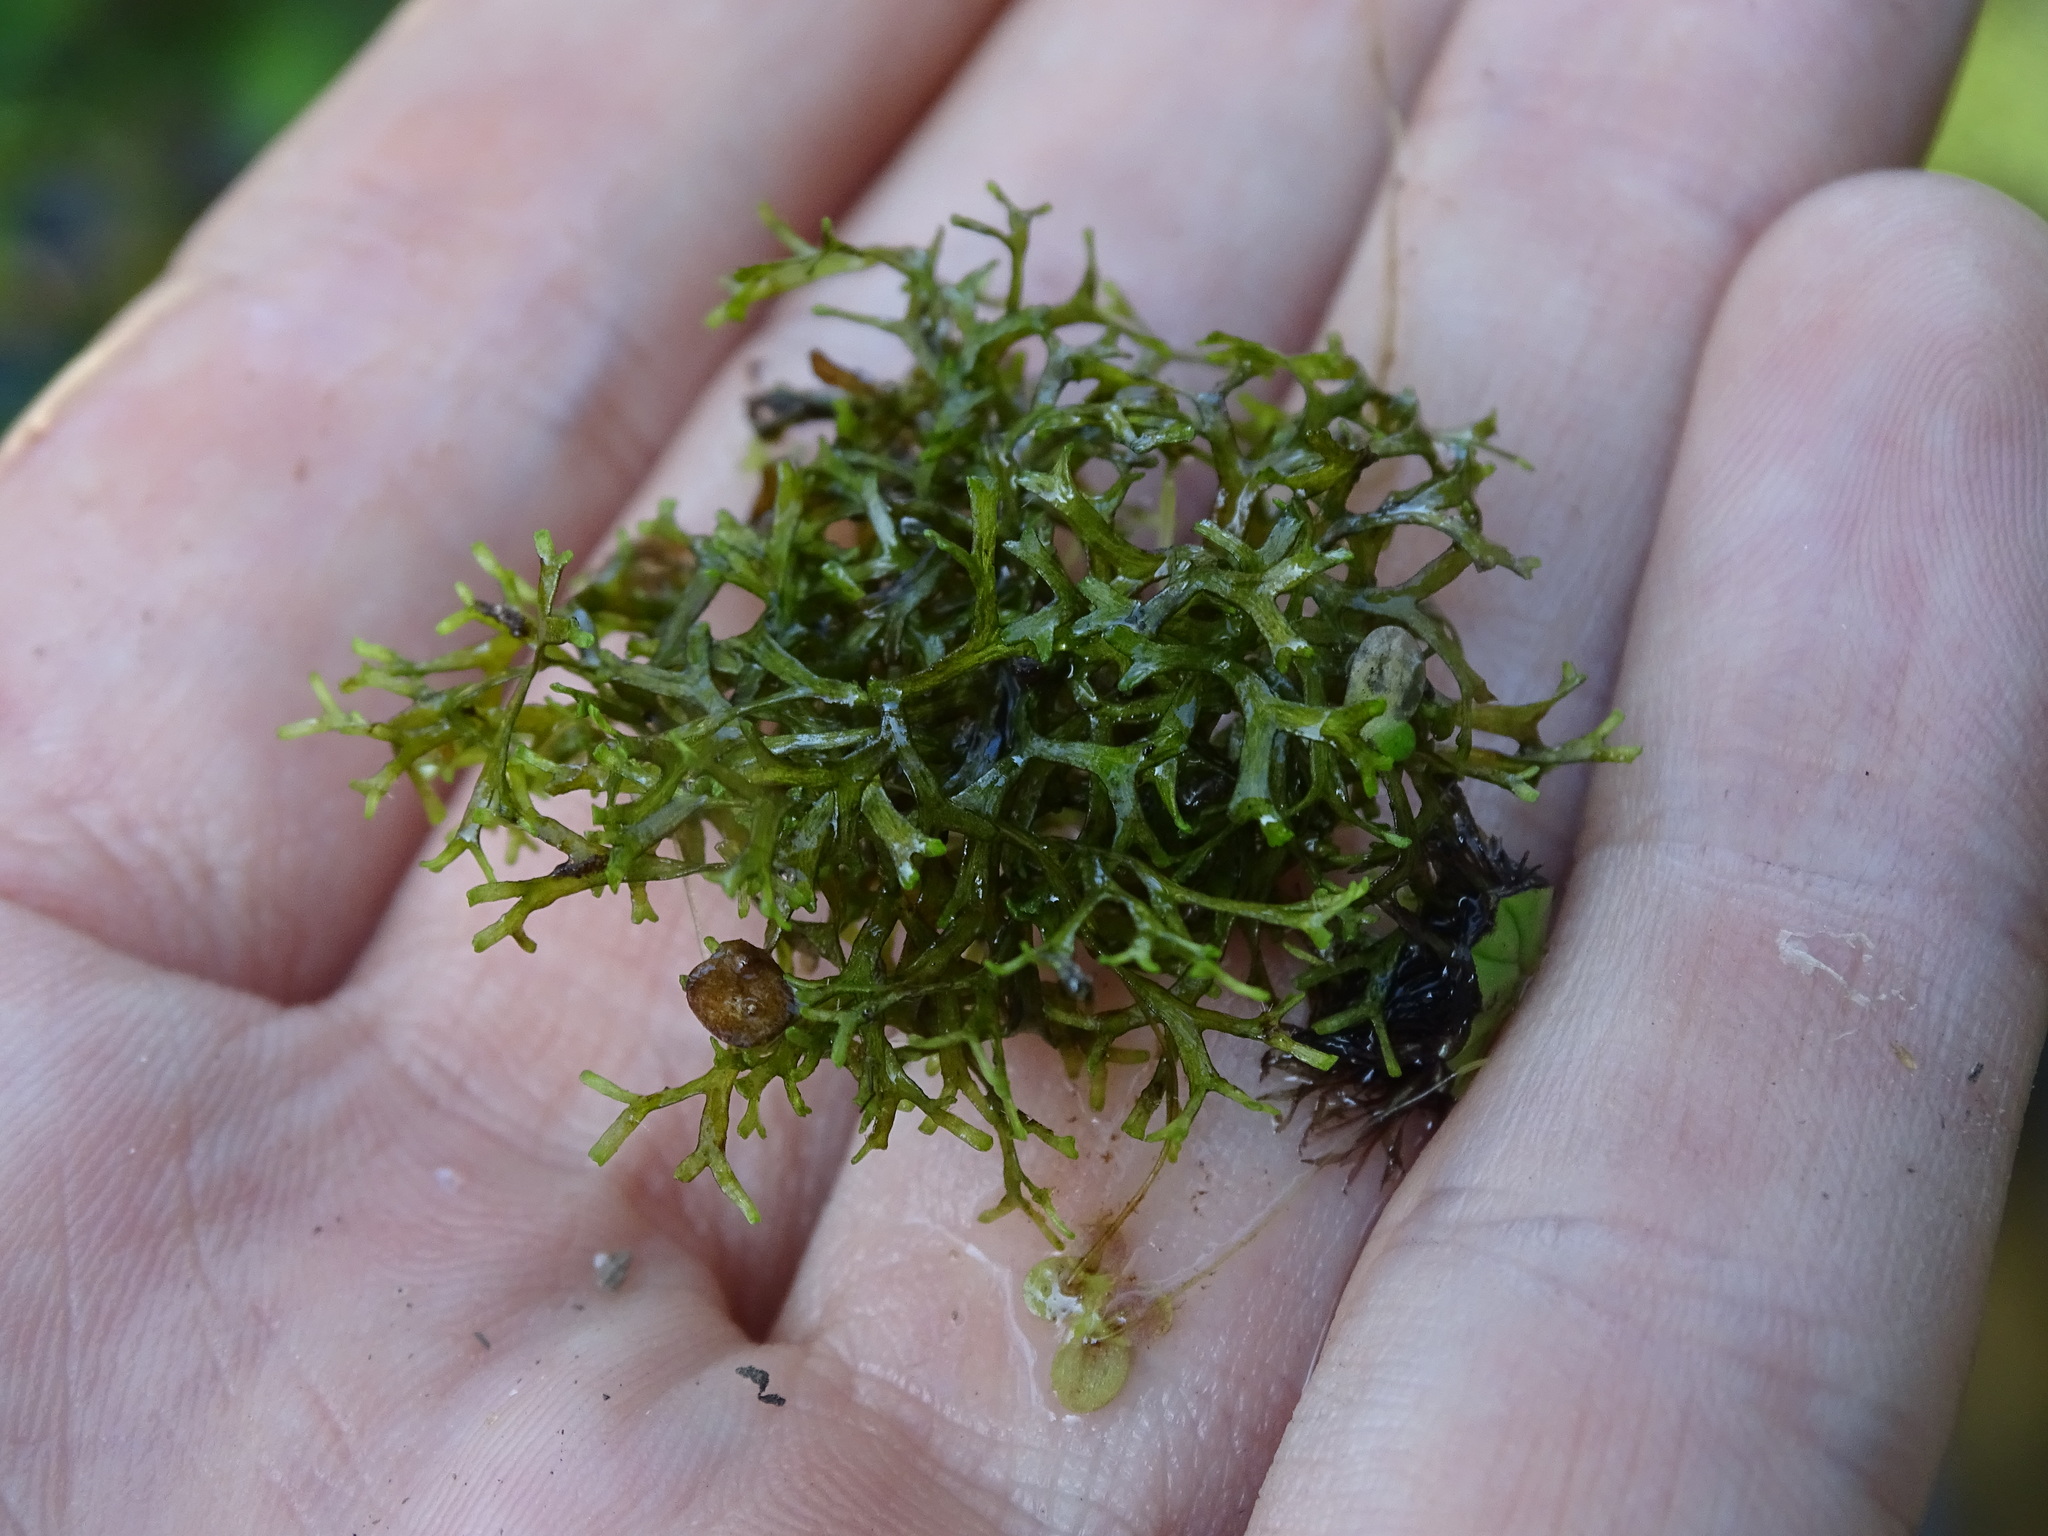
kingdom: Plantae
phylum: Marchantiophyta
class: Marchantiopsida
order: Marchantiales
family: Ricciaceae
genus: Riccia
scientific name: Riccia fluitans
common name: Floating crystalwort
